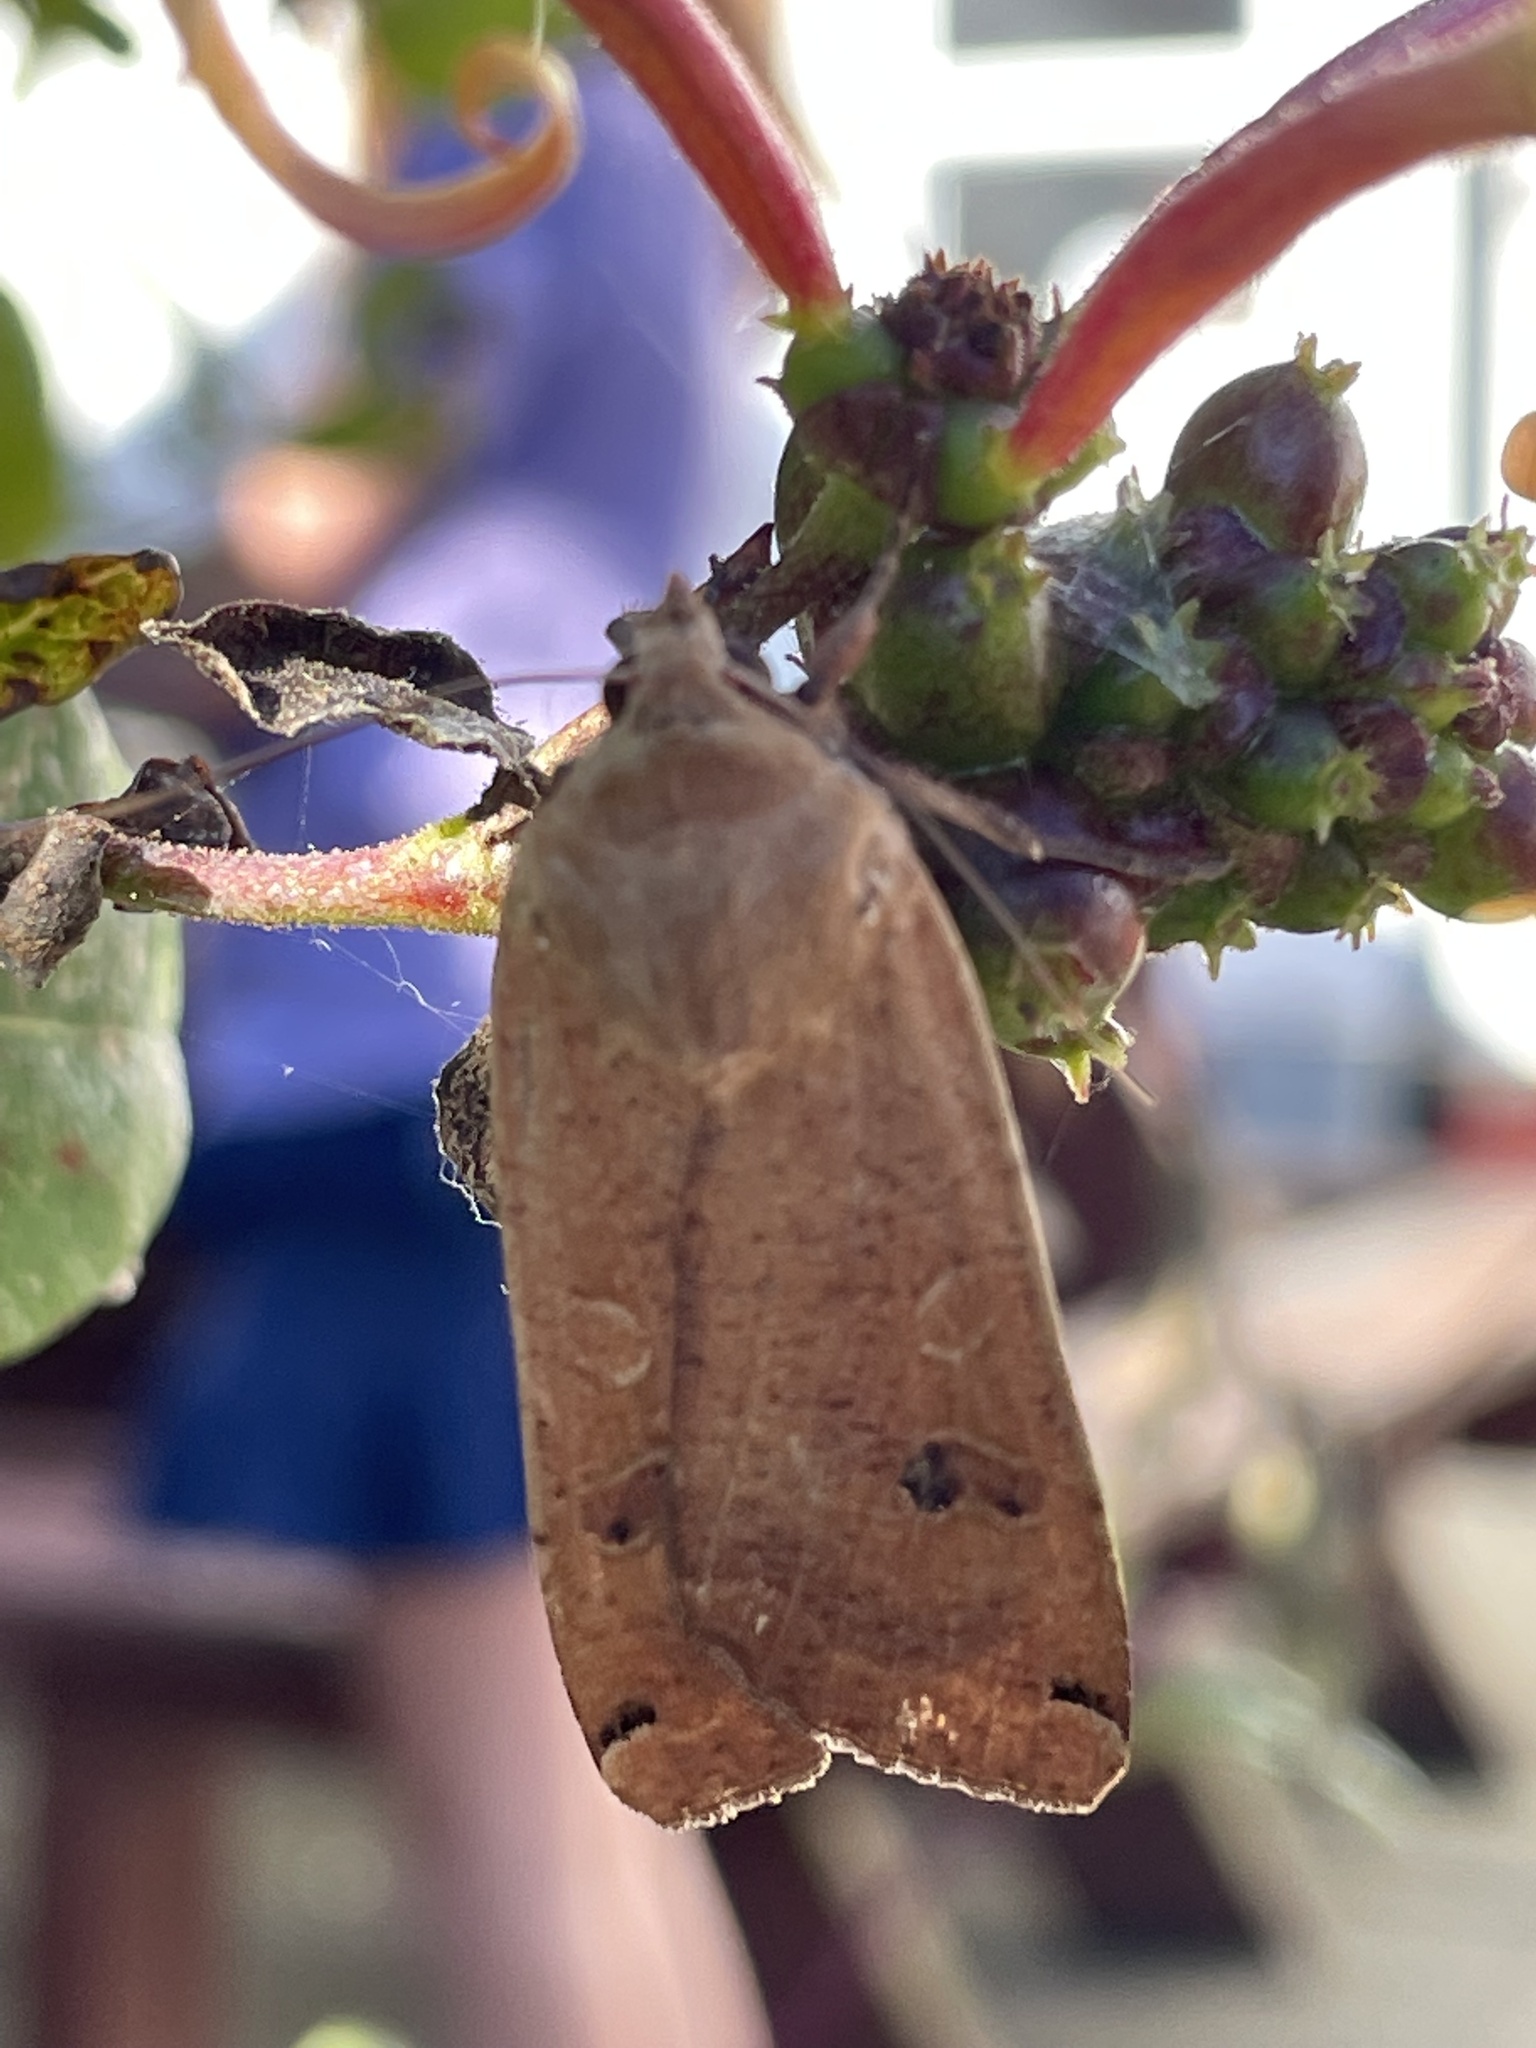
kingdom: Animalia
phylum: Arthropoda
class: Insecta
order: Lepidoptera
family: Noctuidae
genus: Noctua
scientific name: Noctua comes
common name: Lesser yellow underwing
